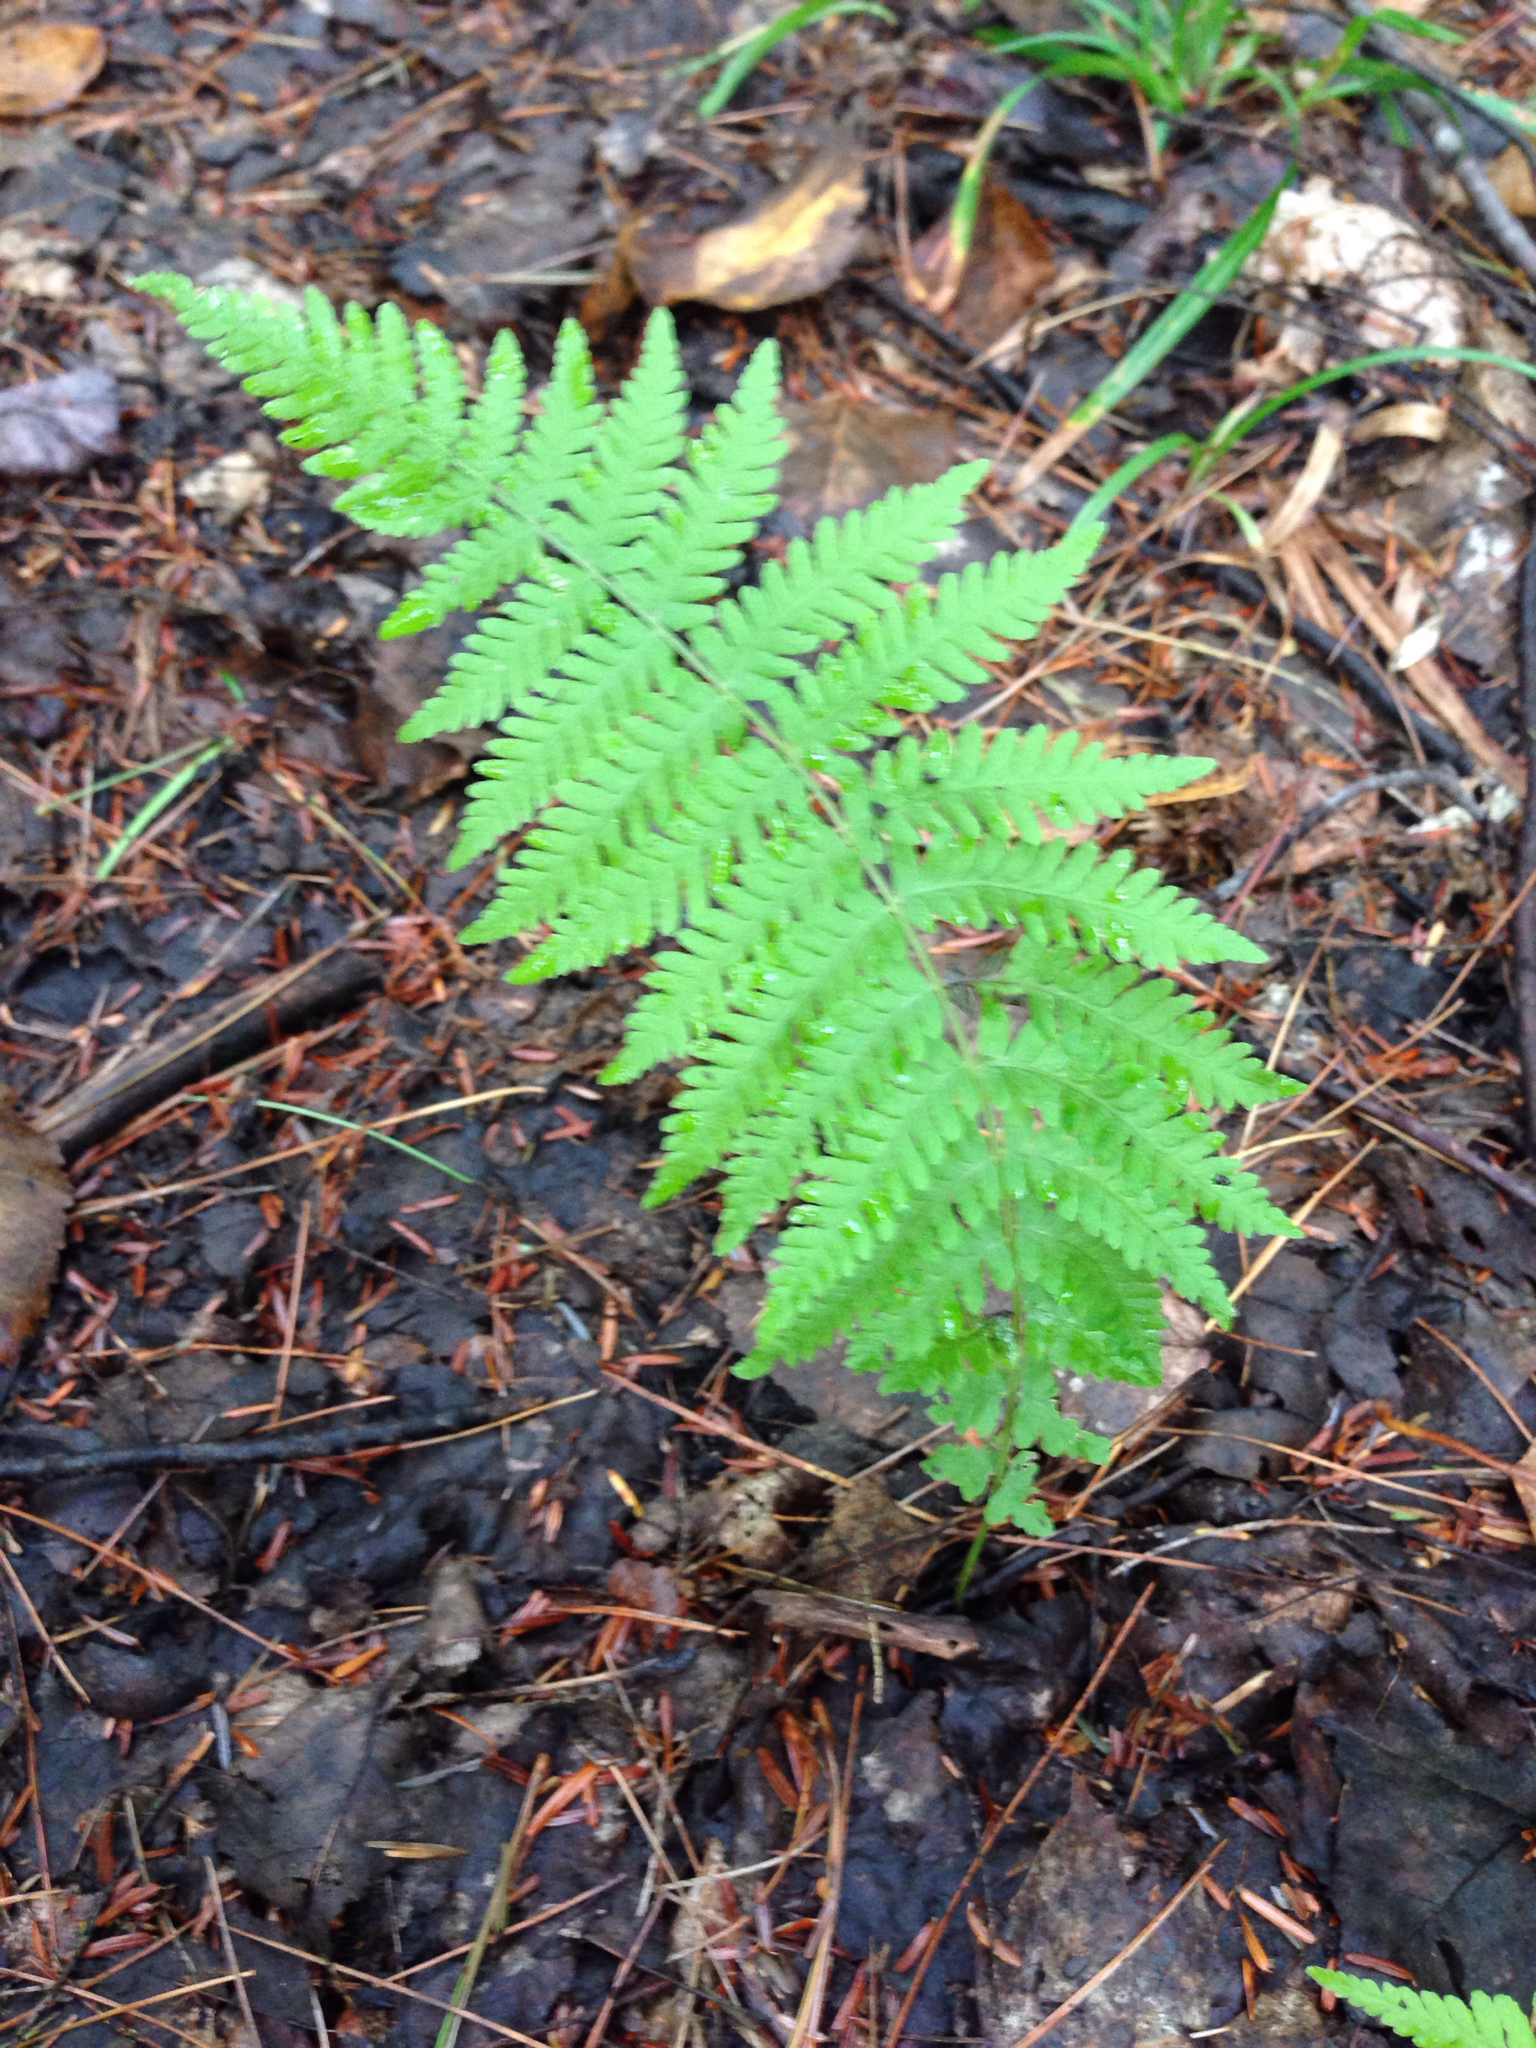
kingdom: Plantae
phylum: Tracheophyta
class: Polypodiopsida
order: Polypodiales
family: Thelypteridaceae
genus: Amauropelta
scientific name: Amauropelta noveboracensis
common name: New york fern
